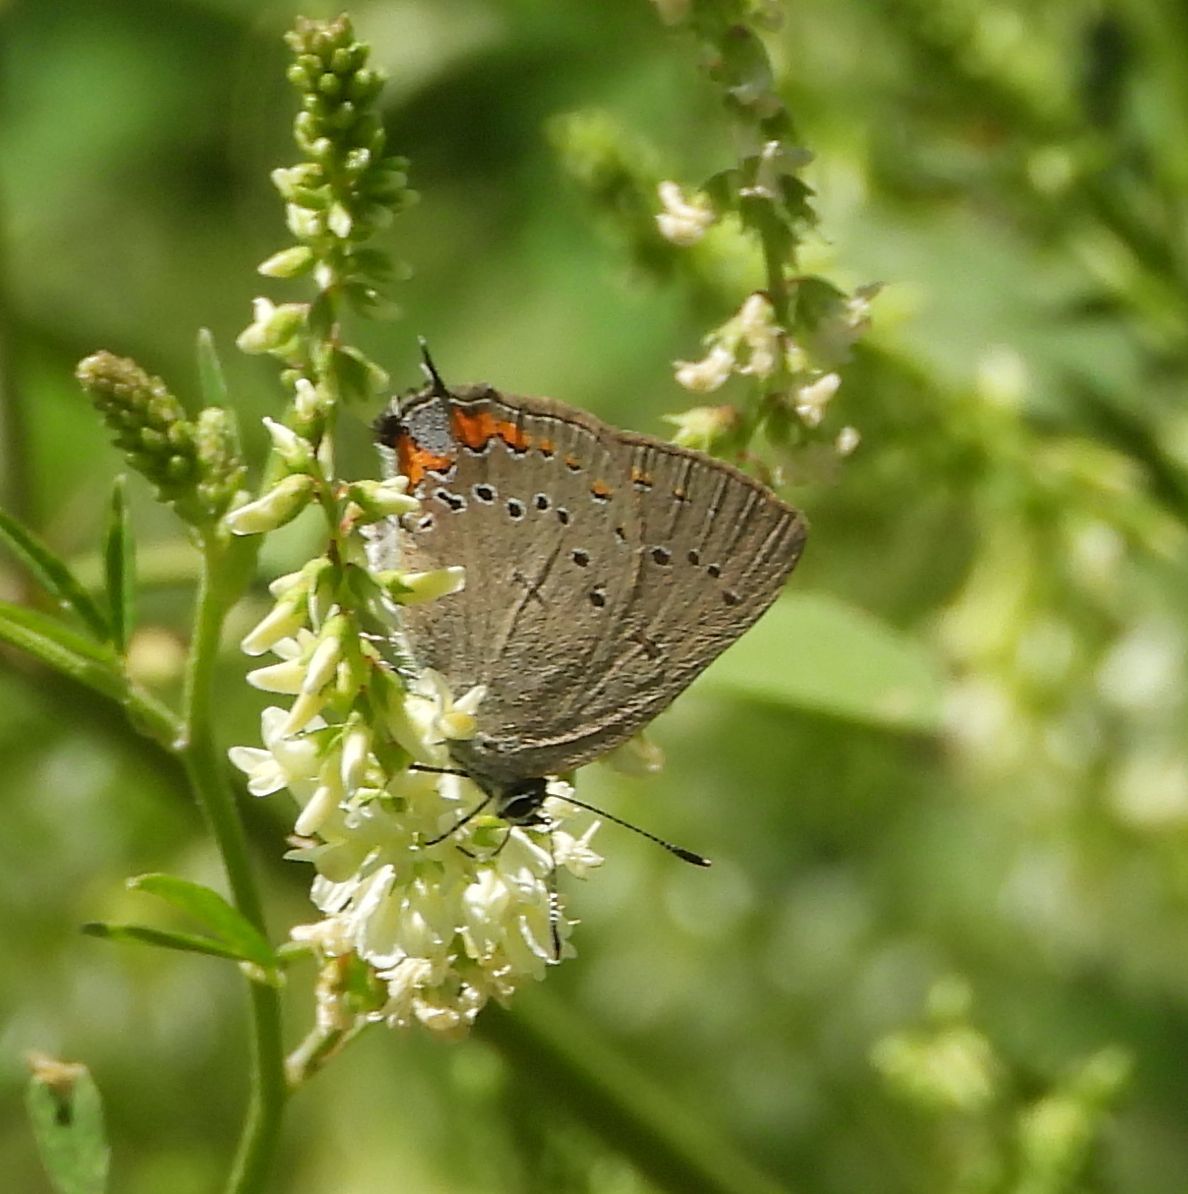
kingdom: Animalia
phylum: Arthropoda
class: Insecta
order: Lepidoptera
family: Lycaenidae
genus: Strymon
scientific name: Strymon acadica
